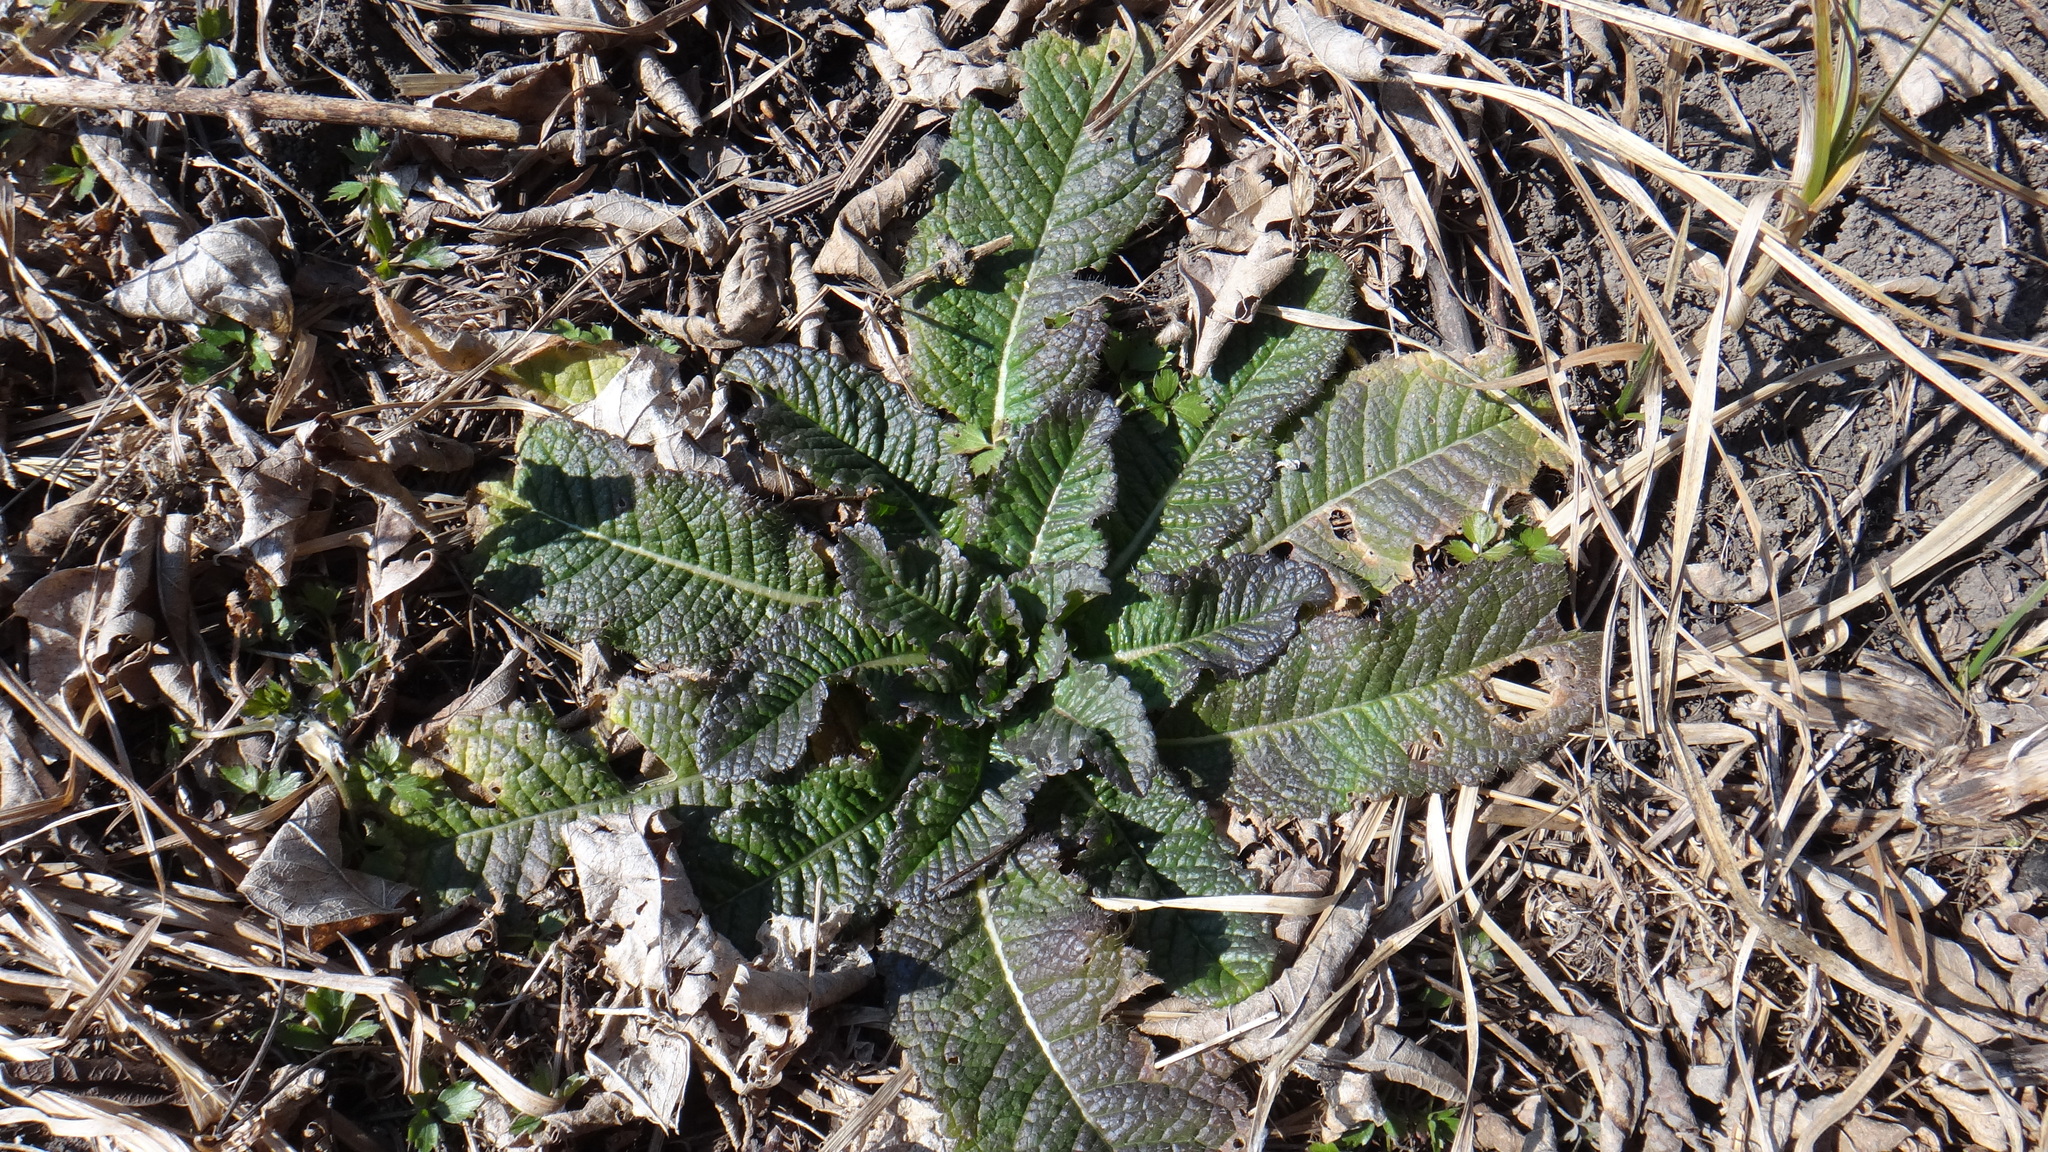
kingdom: Plantae
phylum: Tracheophyta
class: Magnoliopsida
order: Dipsacales
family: Caprifoliaceae
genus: Dipsacus
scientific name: Dipsacus laciniatus
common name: Cut-leaved teasel
